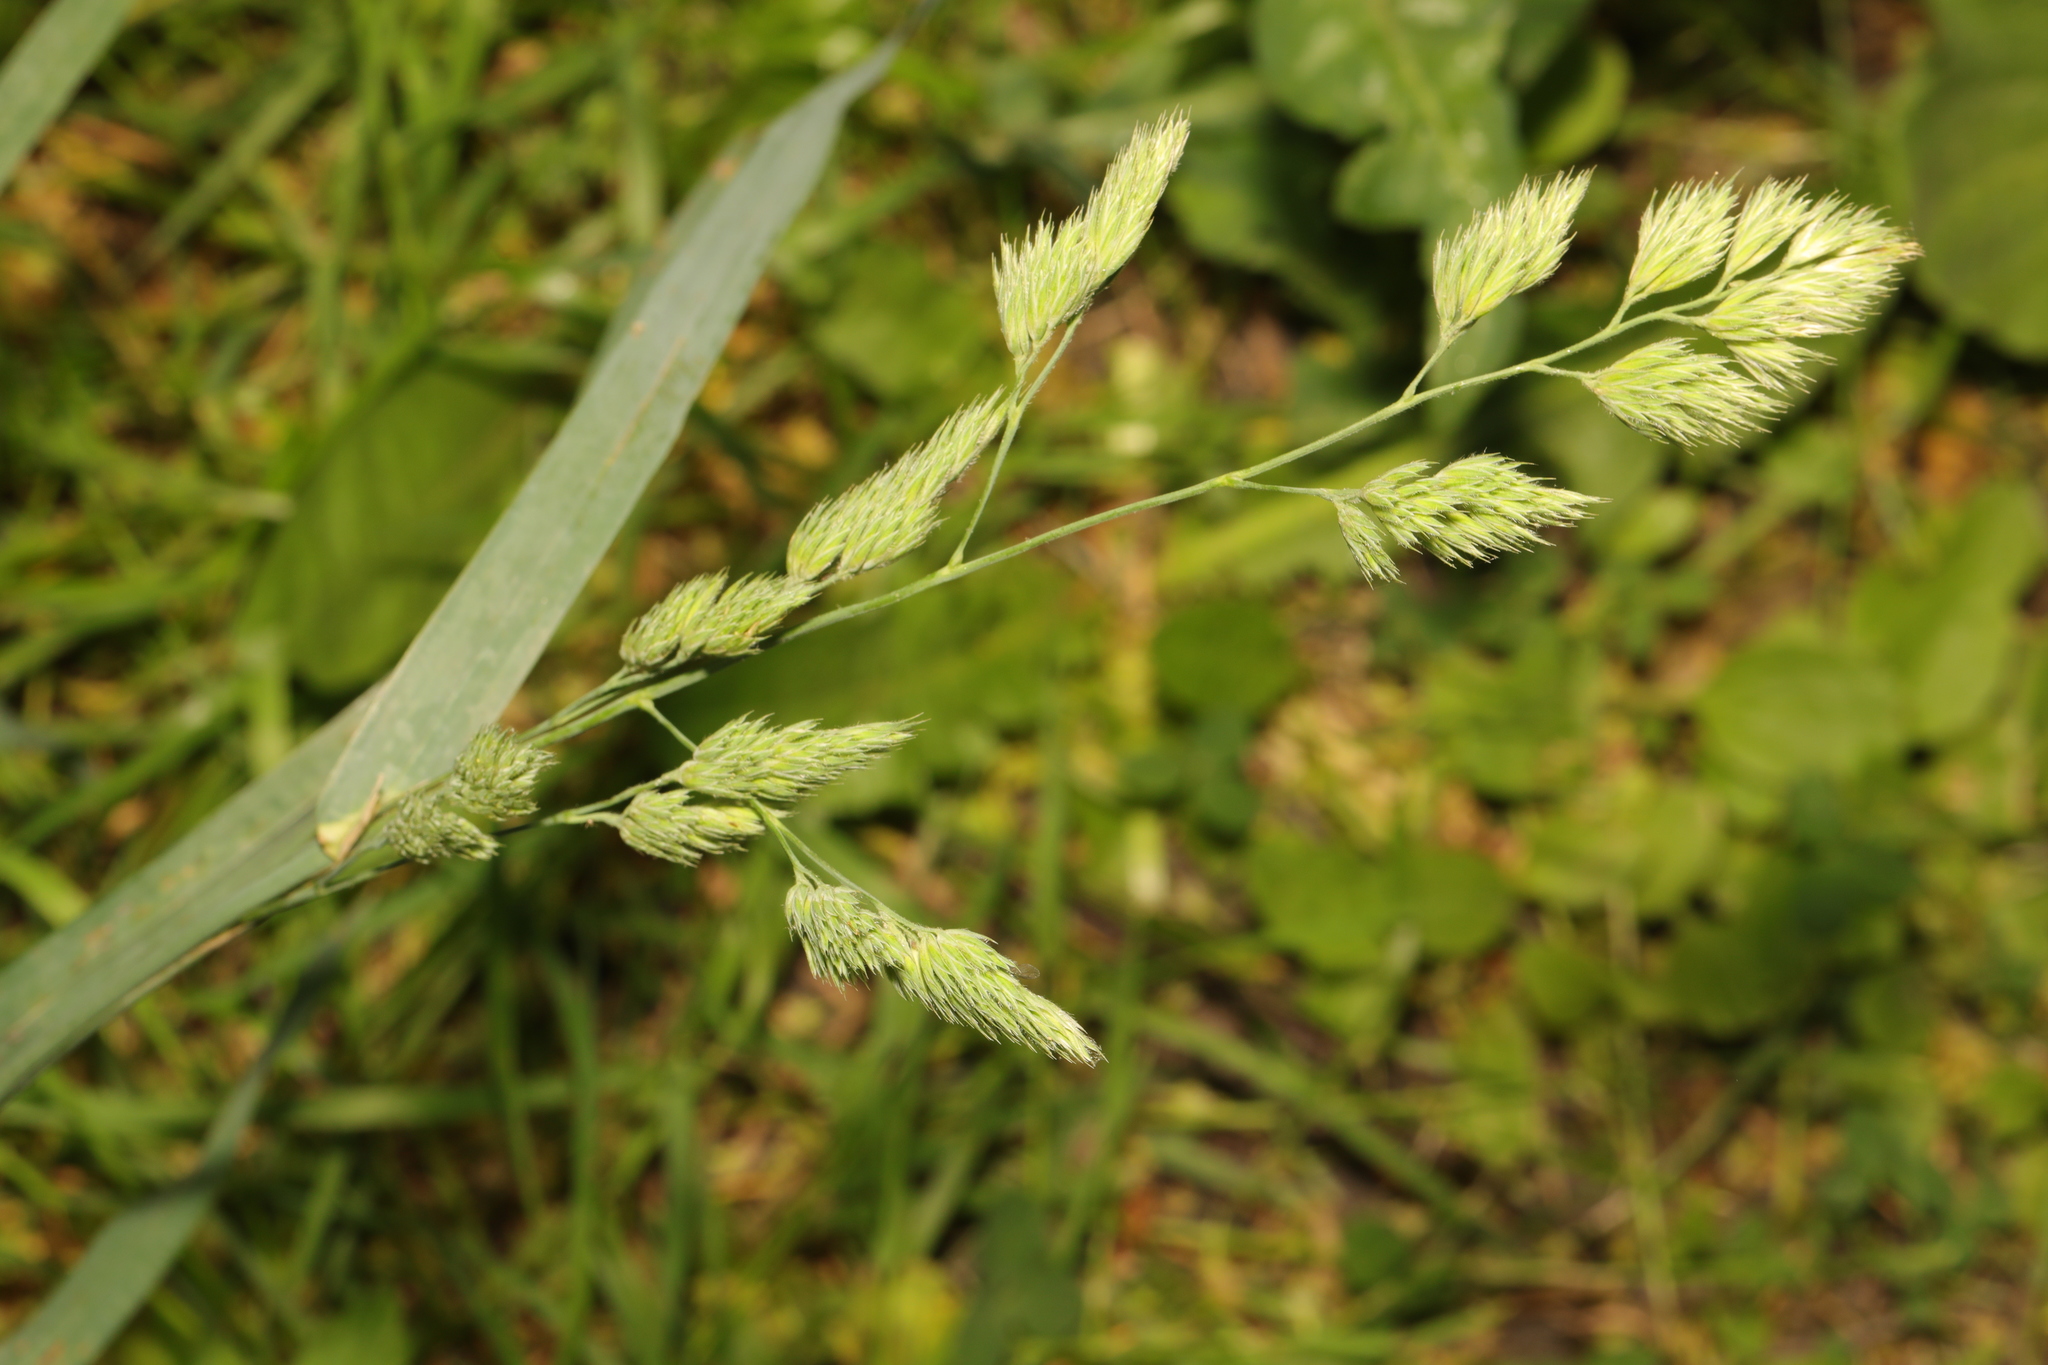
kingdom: Plantae
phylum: Tracheophyta
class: Liliopsida
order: Poales
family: Poaceae
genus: Dactylis
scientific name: Dactylis glomerata
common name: Orchardgrass
